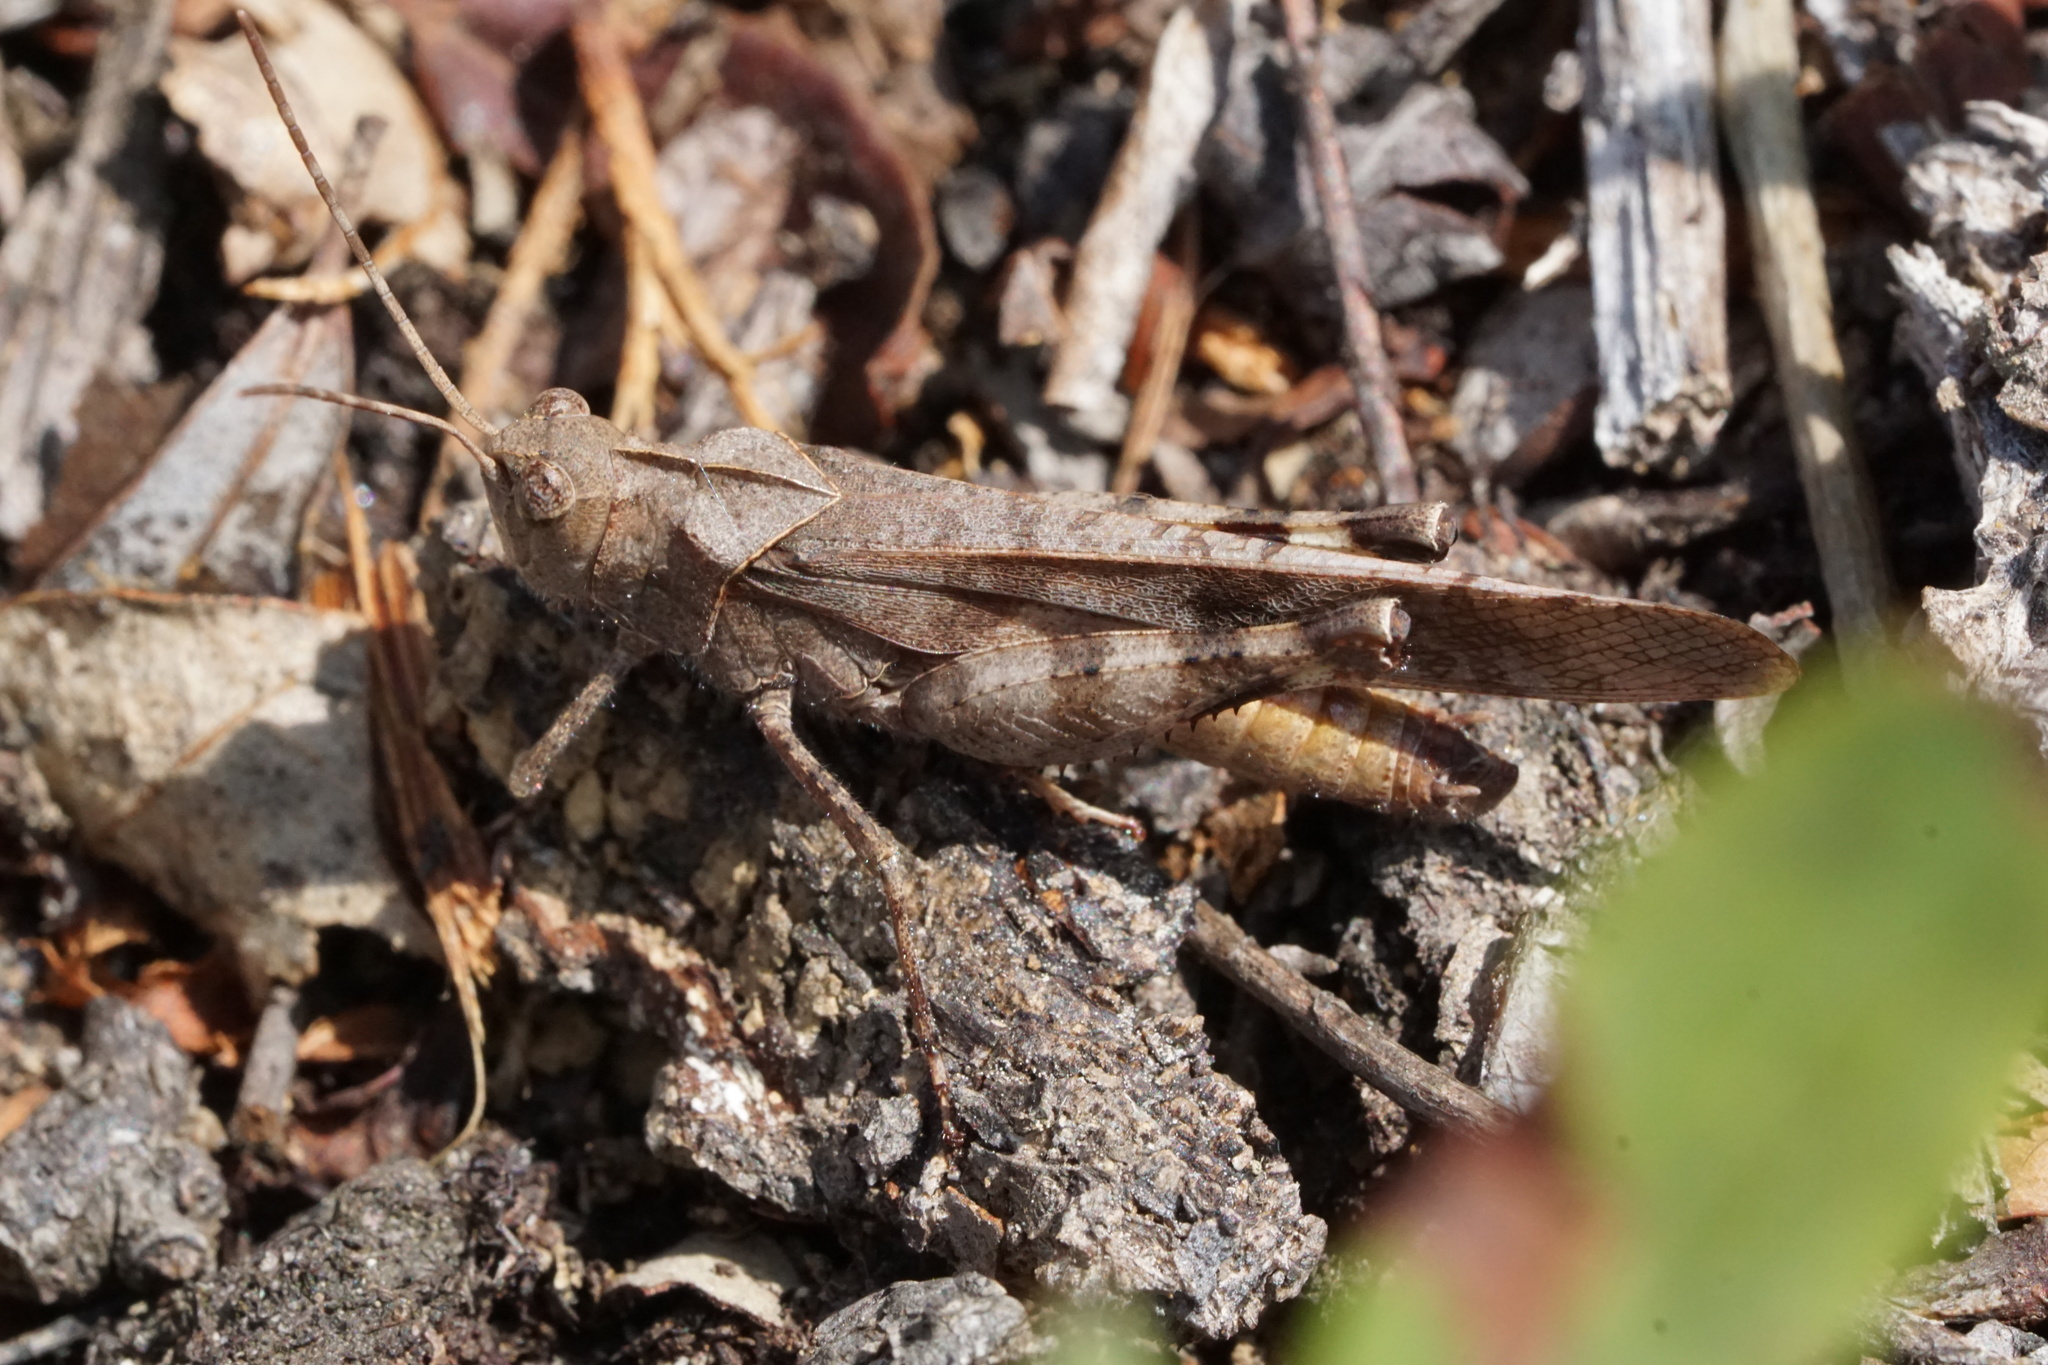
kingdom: Animalia
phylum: Arthropoda
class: Insecta
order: Orthoptera
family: Acrididae
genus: Spharagemon
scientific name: Spharagemon bolli
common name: Boll's grasshopper
